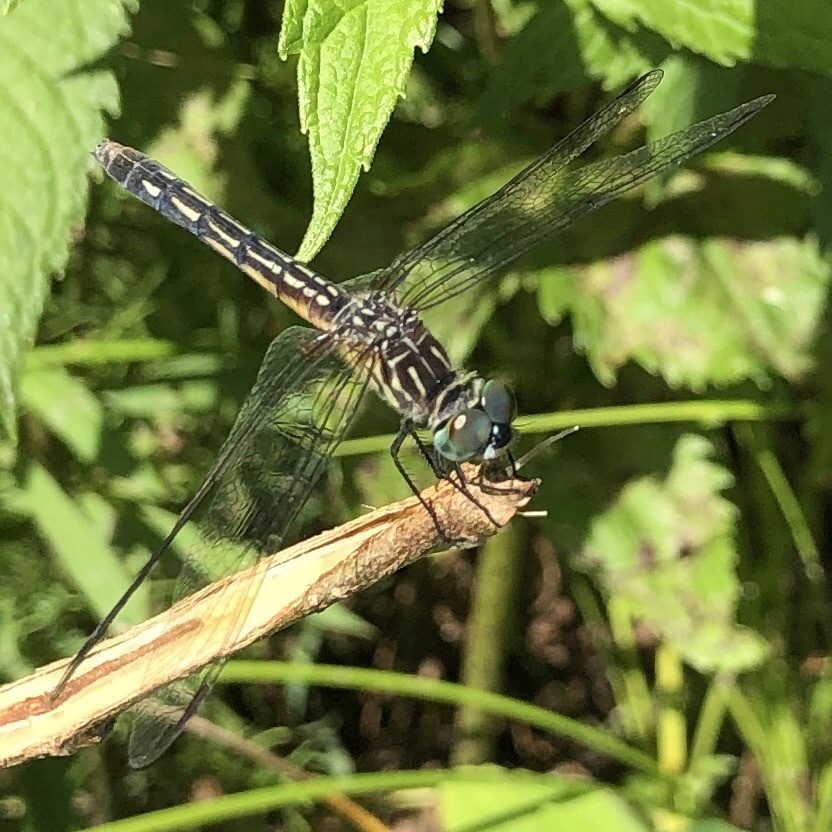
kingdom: Animalia
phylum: Arthropoda
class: Insecta
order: Odonata
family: Libellulidae
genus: Pachydiplax
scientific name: Pachydiplax longipennis
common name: Blue dasher
